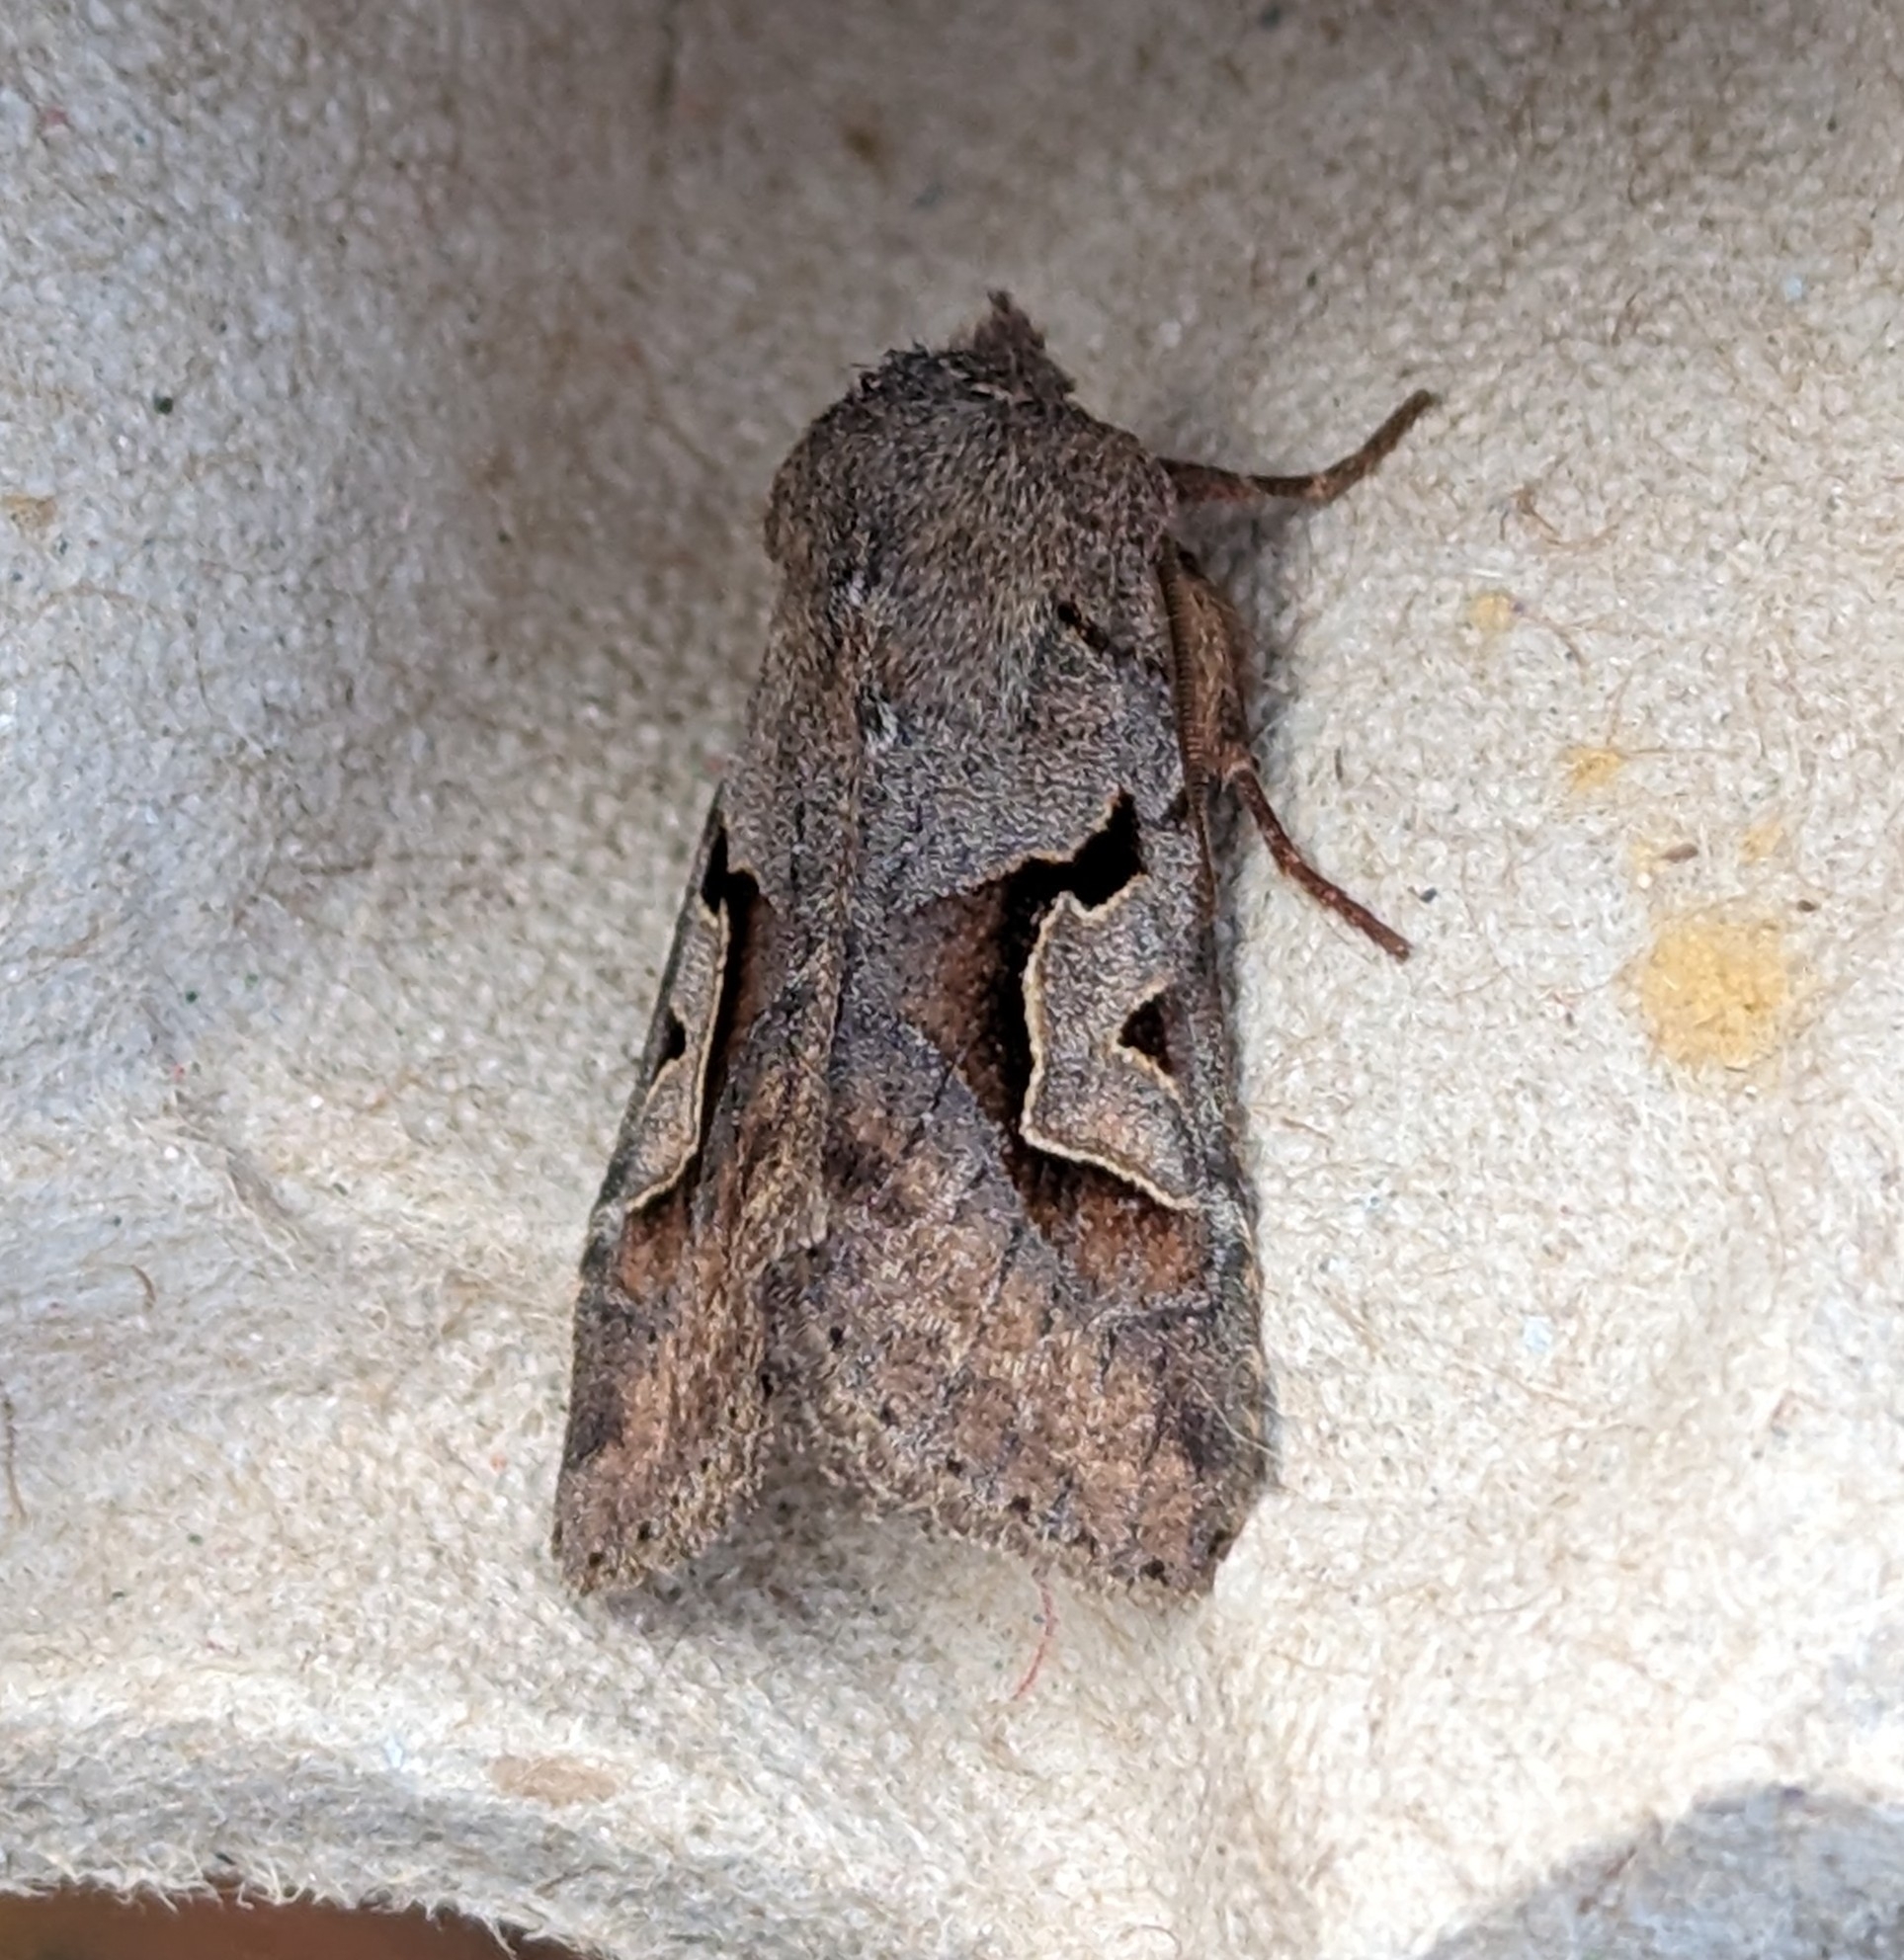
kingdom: Animalia
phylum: Arthropoda
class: Insecta
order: Lepidoptera
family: Noctuidae
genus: Acerra
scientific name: Acerra normalis
